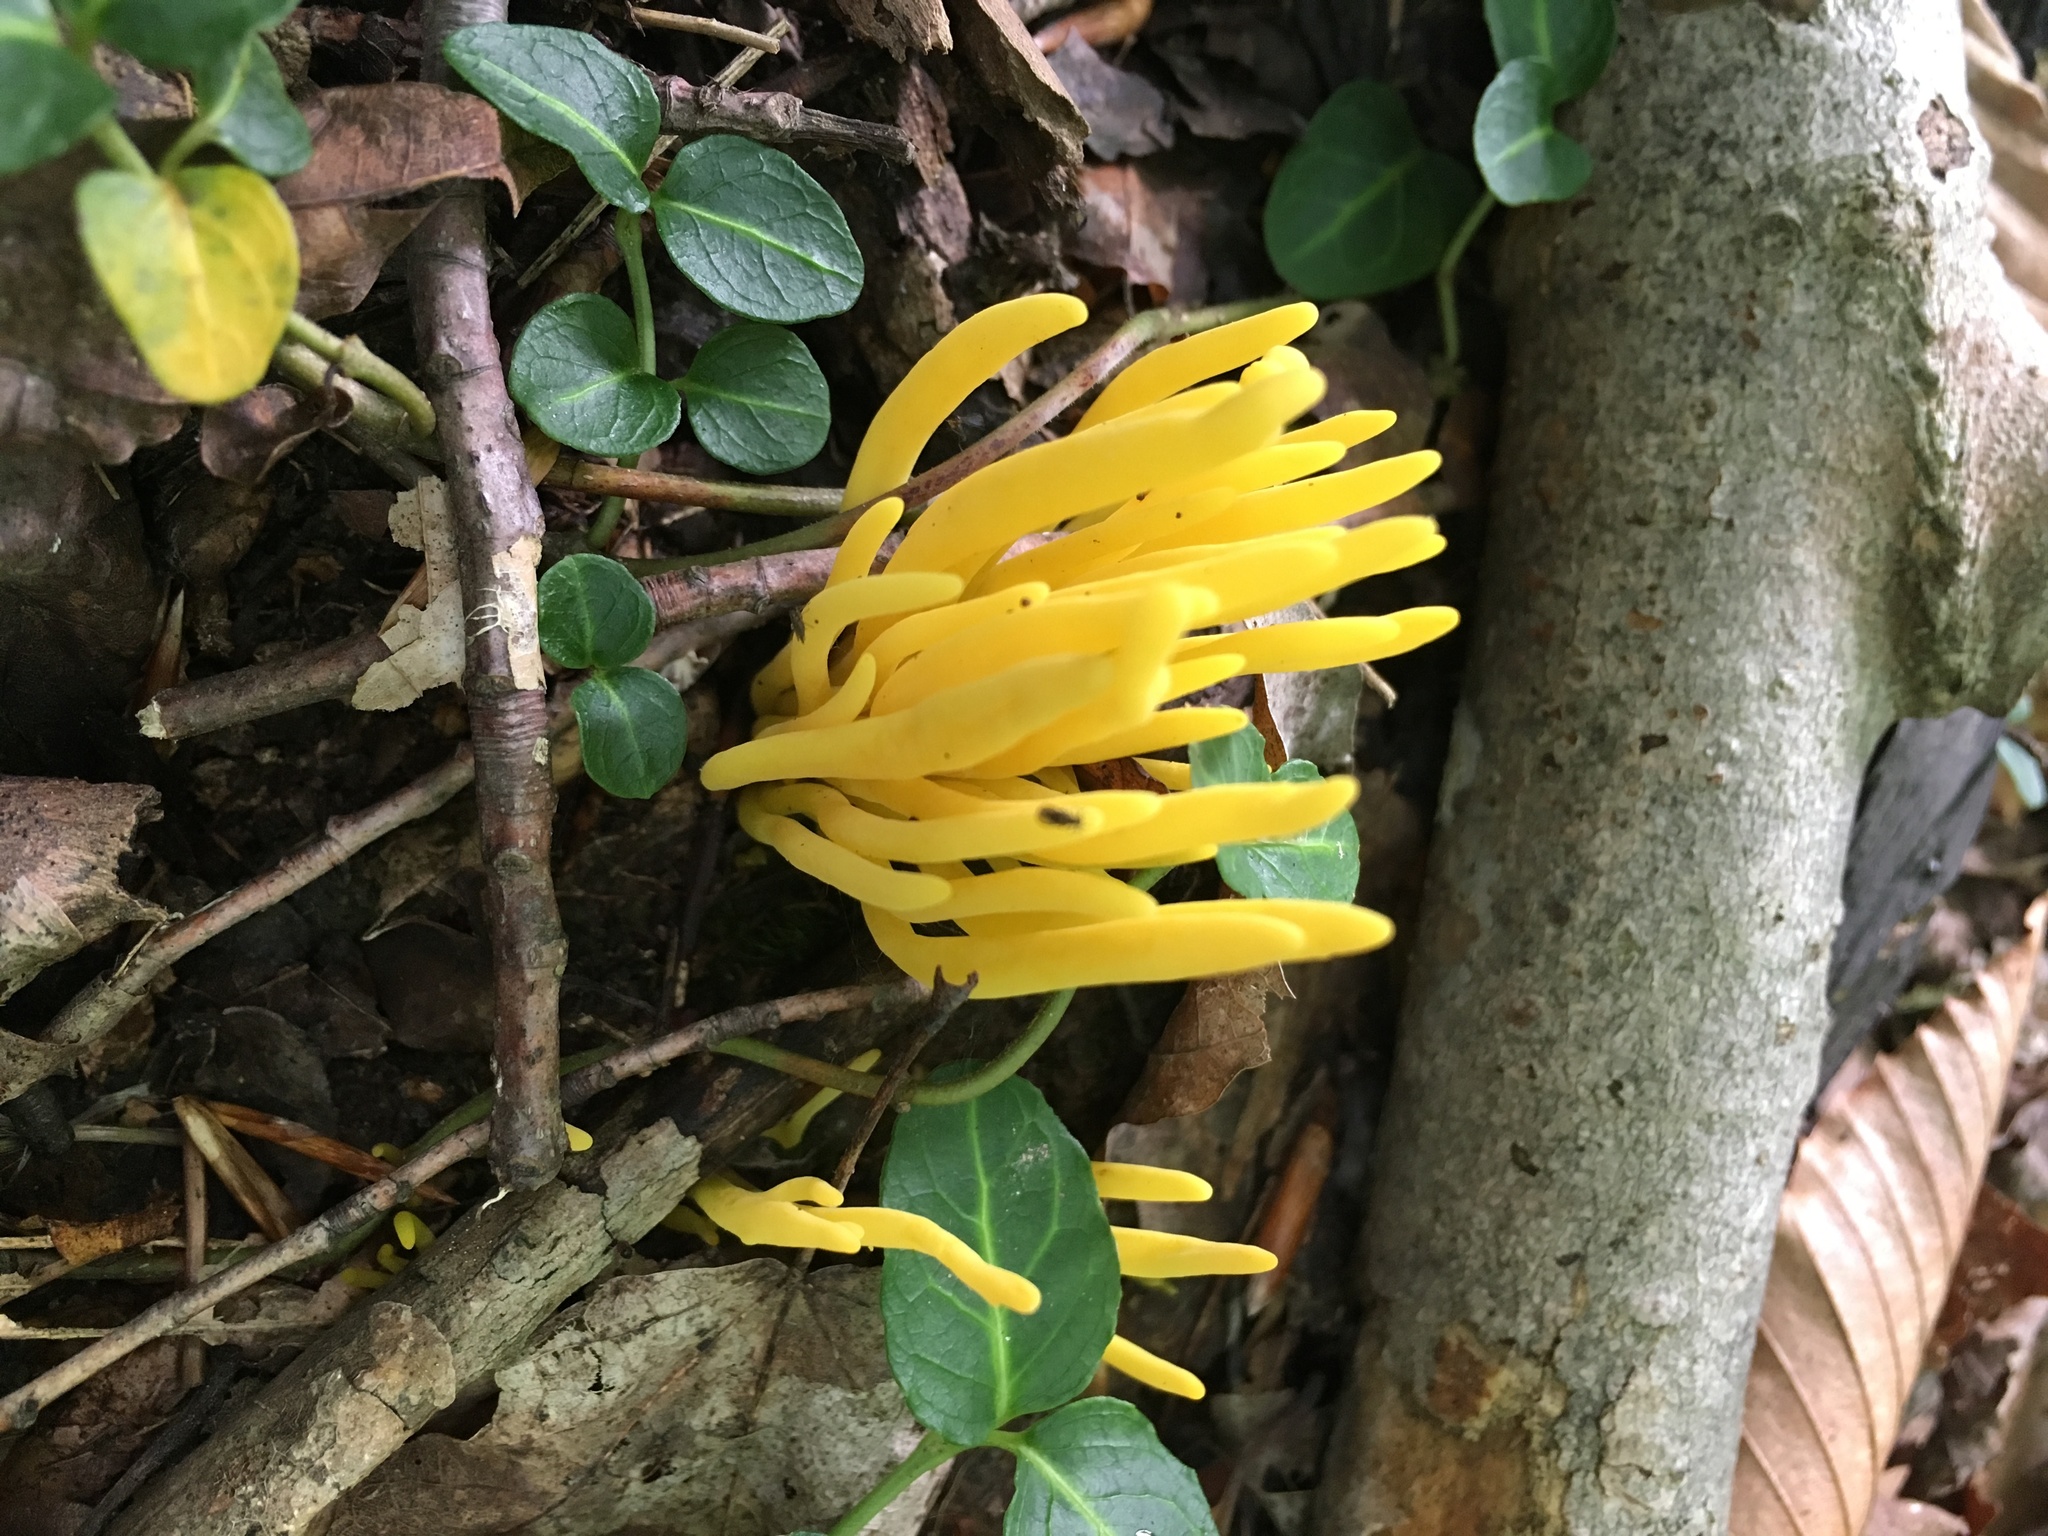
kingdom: Fungi
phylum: Basidiomycota
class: Agaricomycetes
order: Agaricales
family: Clavariaceae
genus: Clavulinopsis
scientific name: Clavulinopsis fusiformis
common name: Golden spindles
